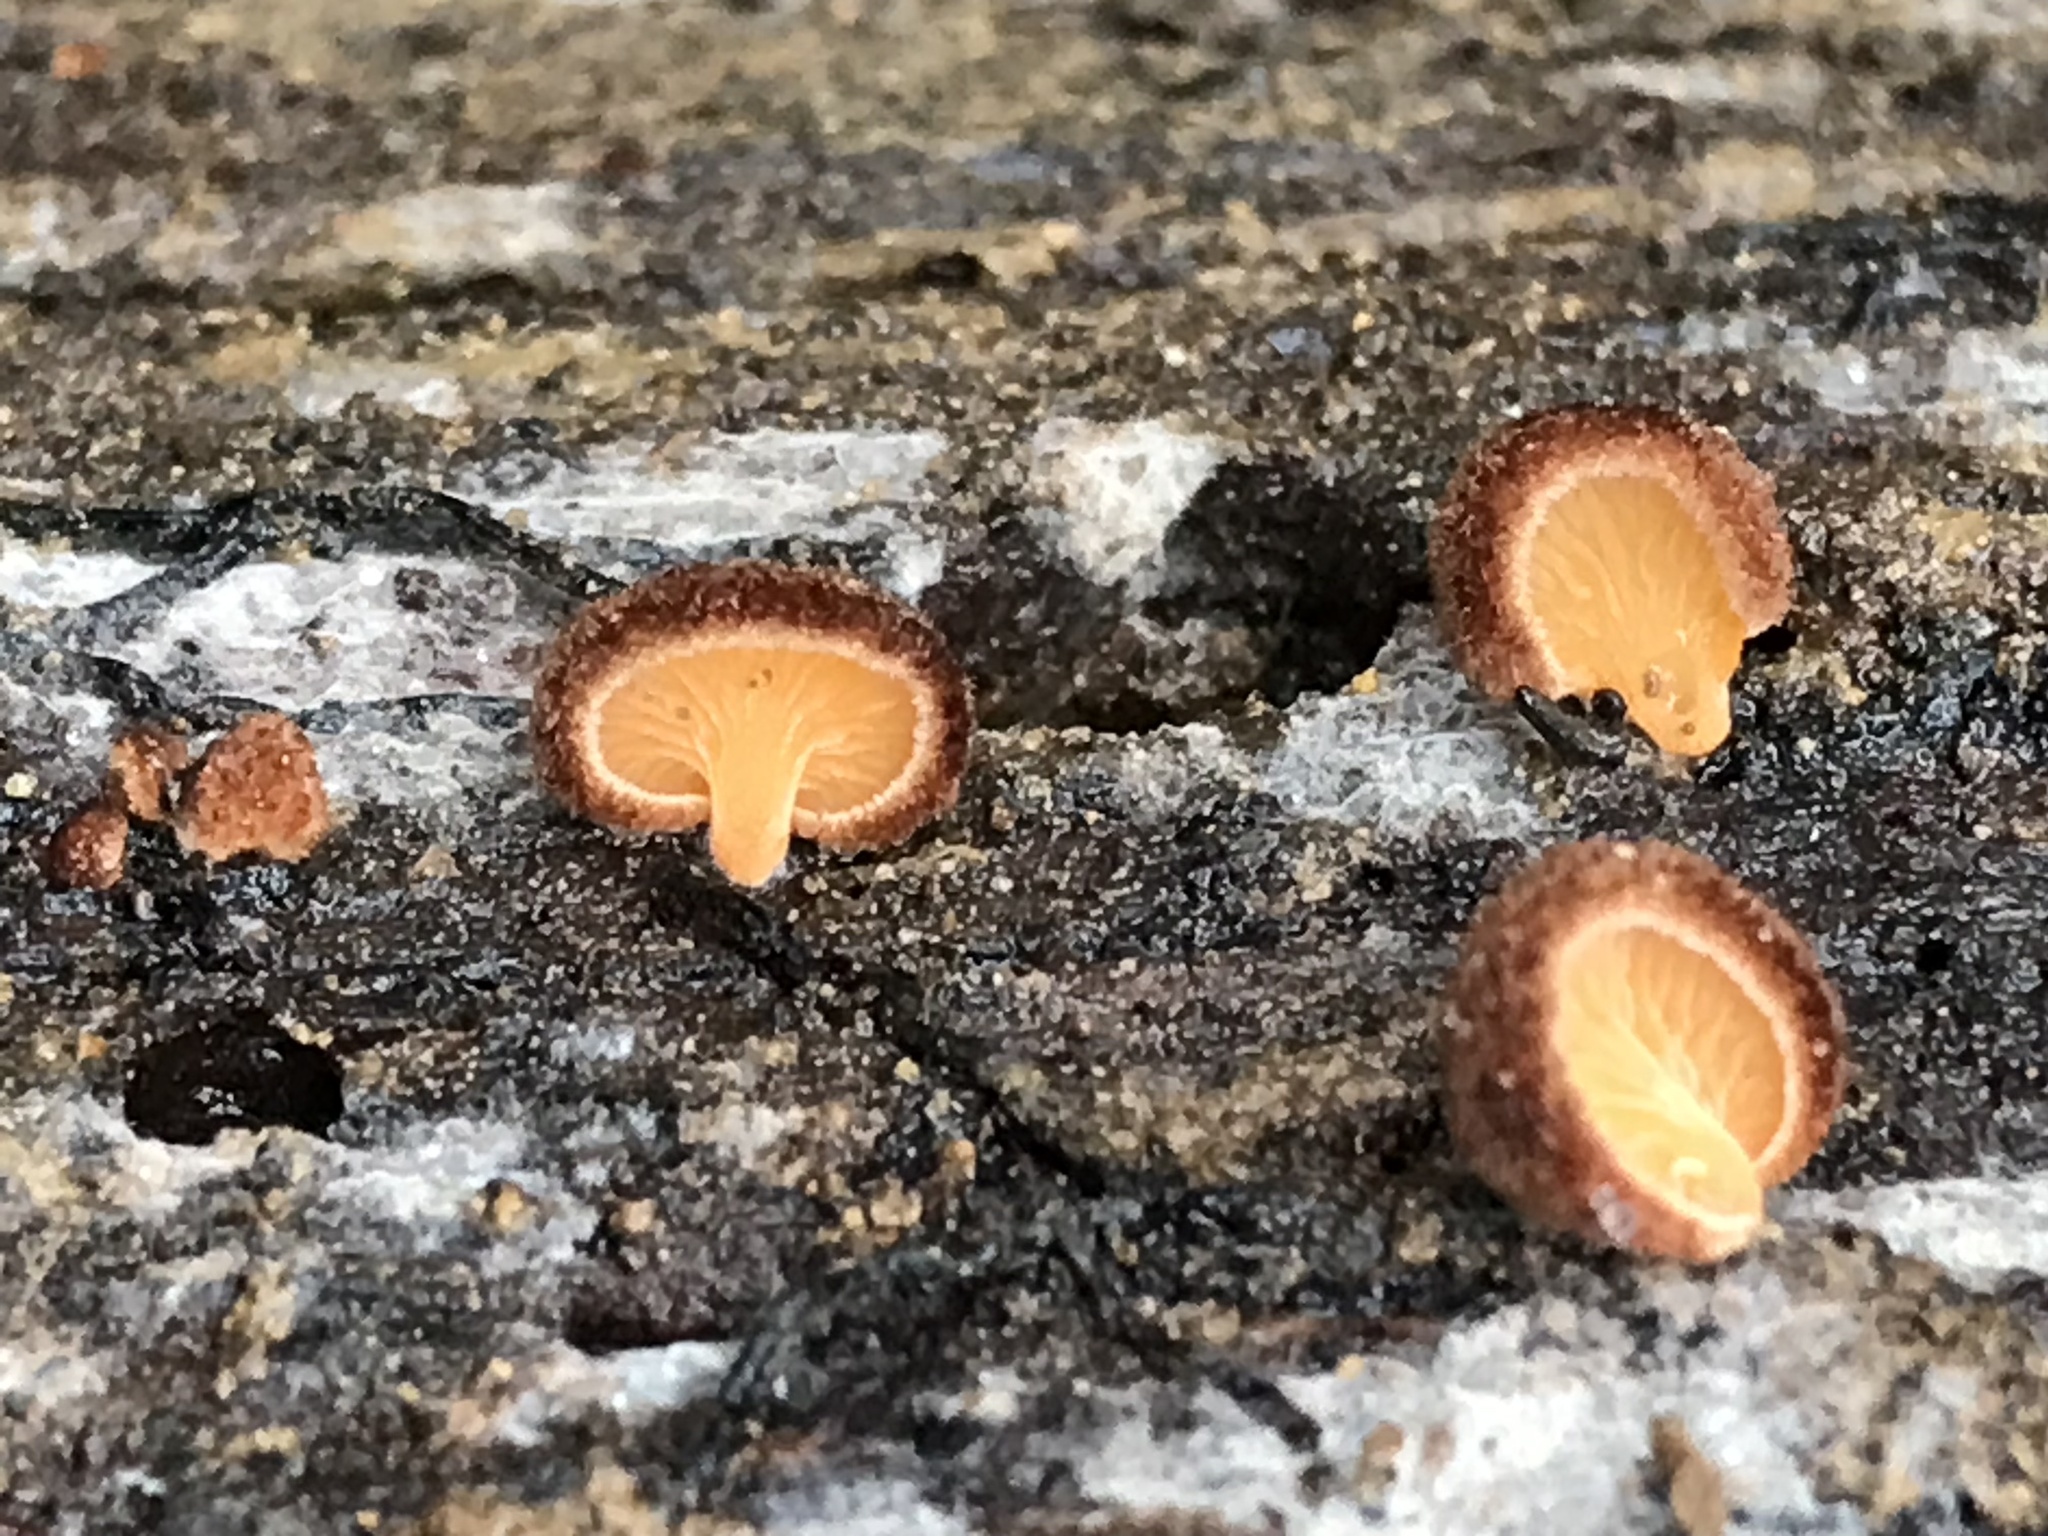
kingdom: Fungi
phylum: Basidiomycota
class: Agaricomycetes
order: Agaricales
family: Crepidotaceae
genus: Crepidotus
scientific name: Crepidotus crocophyllus
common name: Saffron oysterling
